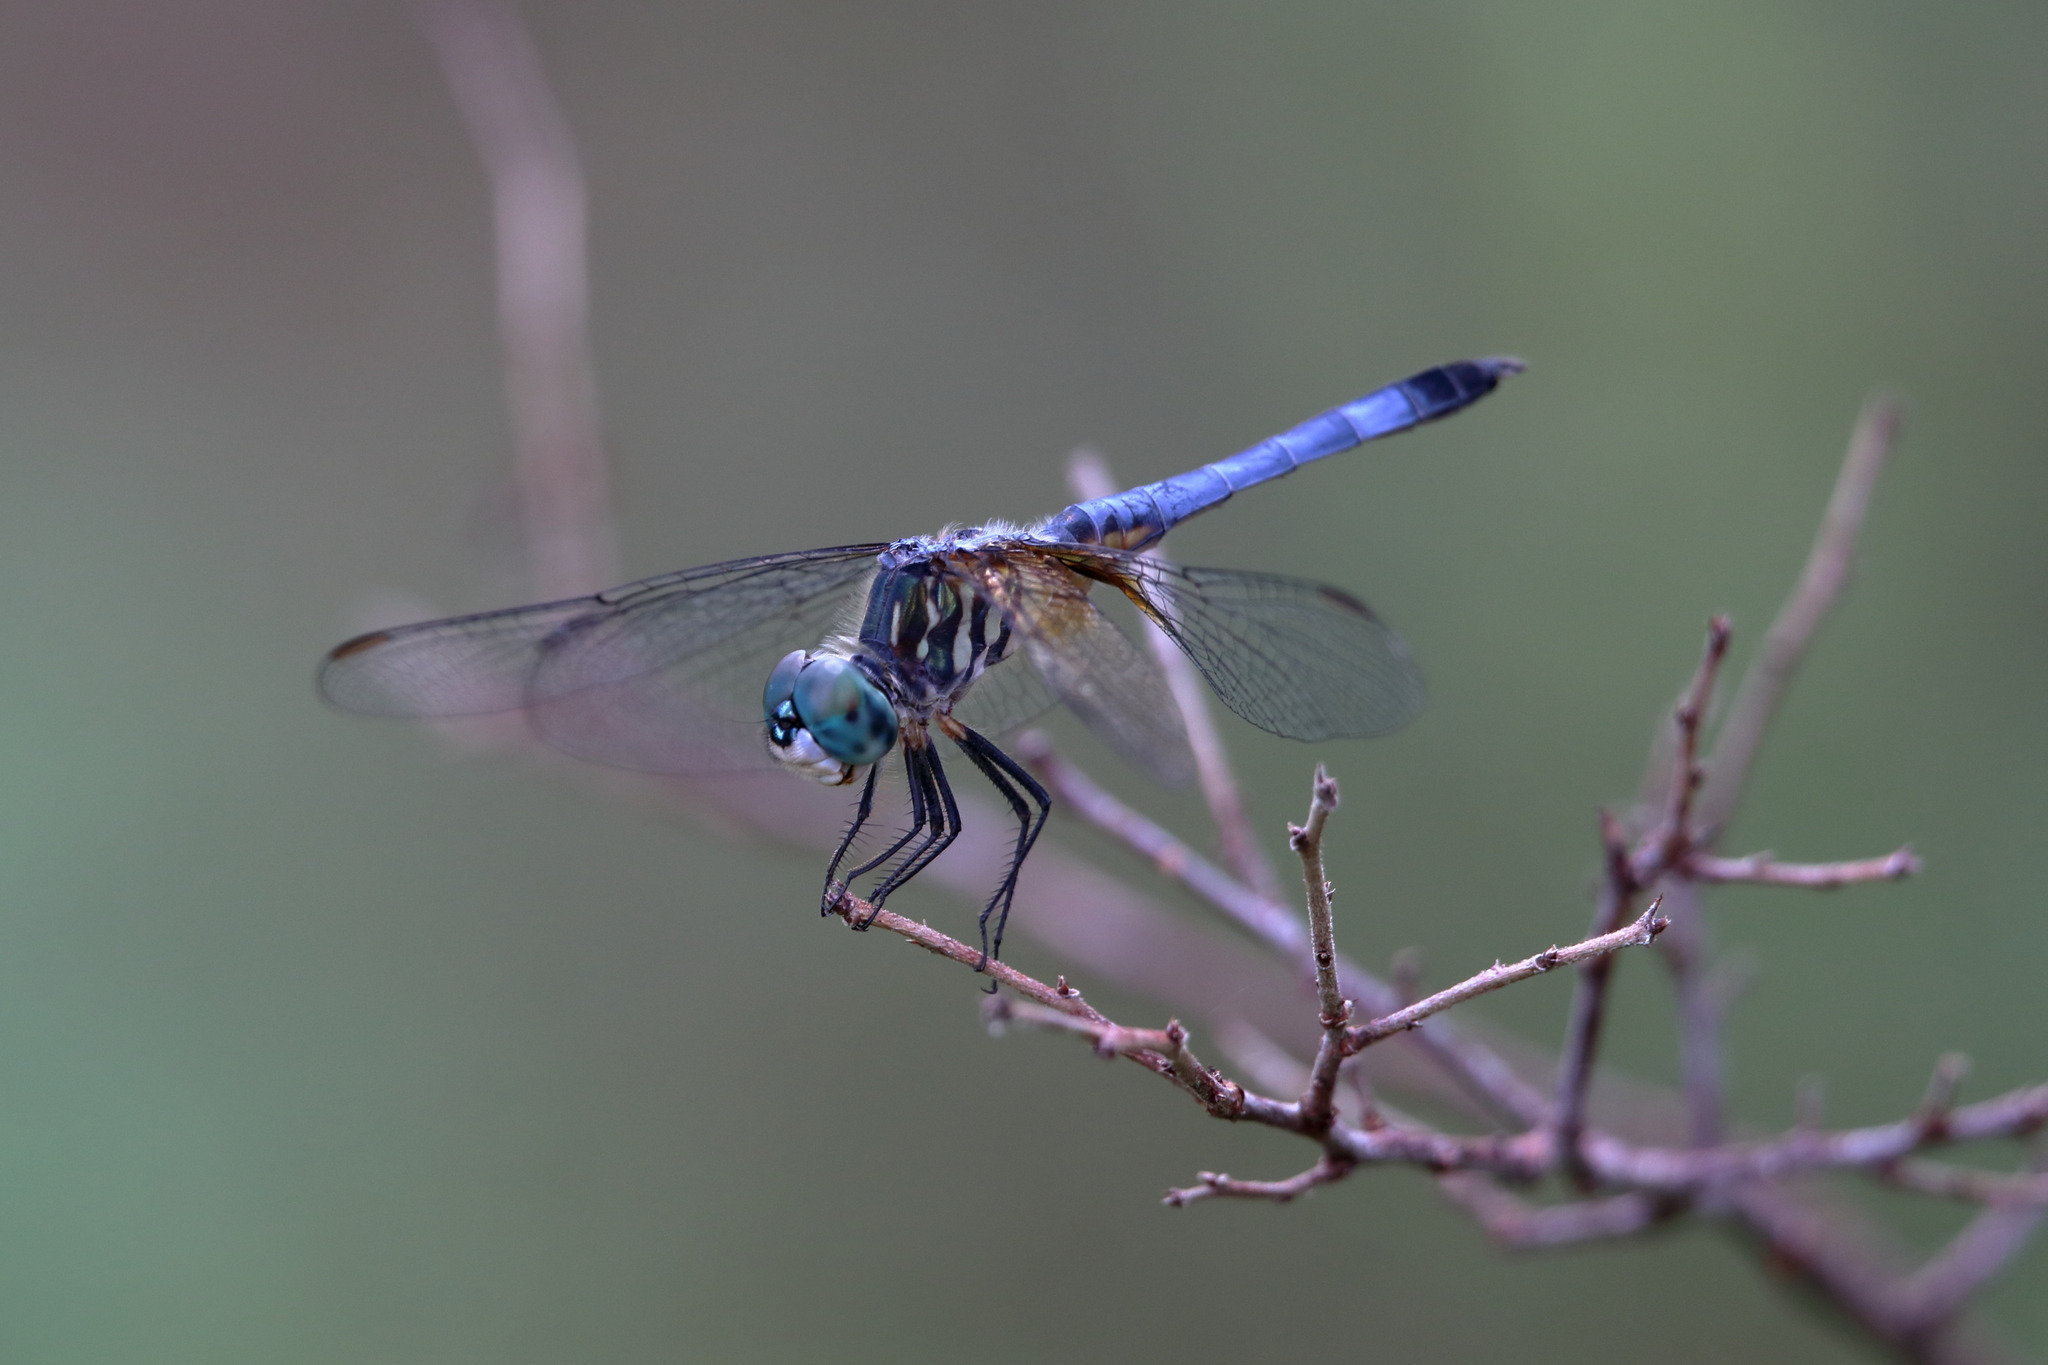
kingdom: Animalia
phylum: Arthropoda
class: Insecta
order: Odonata
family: Libellulidae
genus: Pachydiplax
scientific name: Pachydiplax longipennis
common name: Blue dasher
